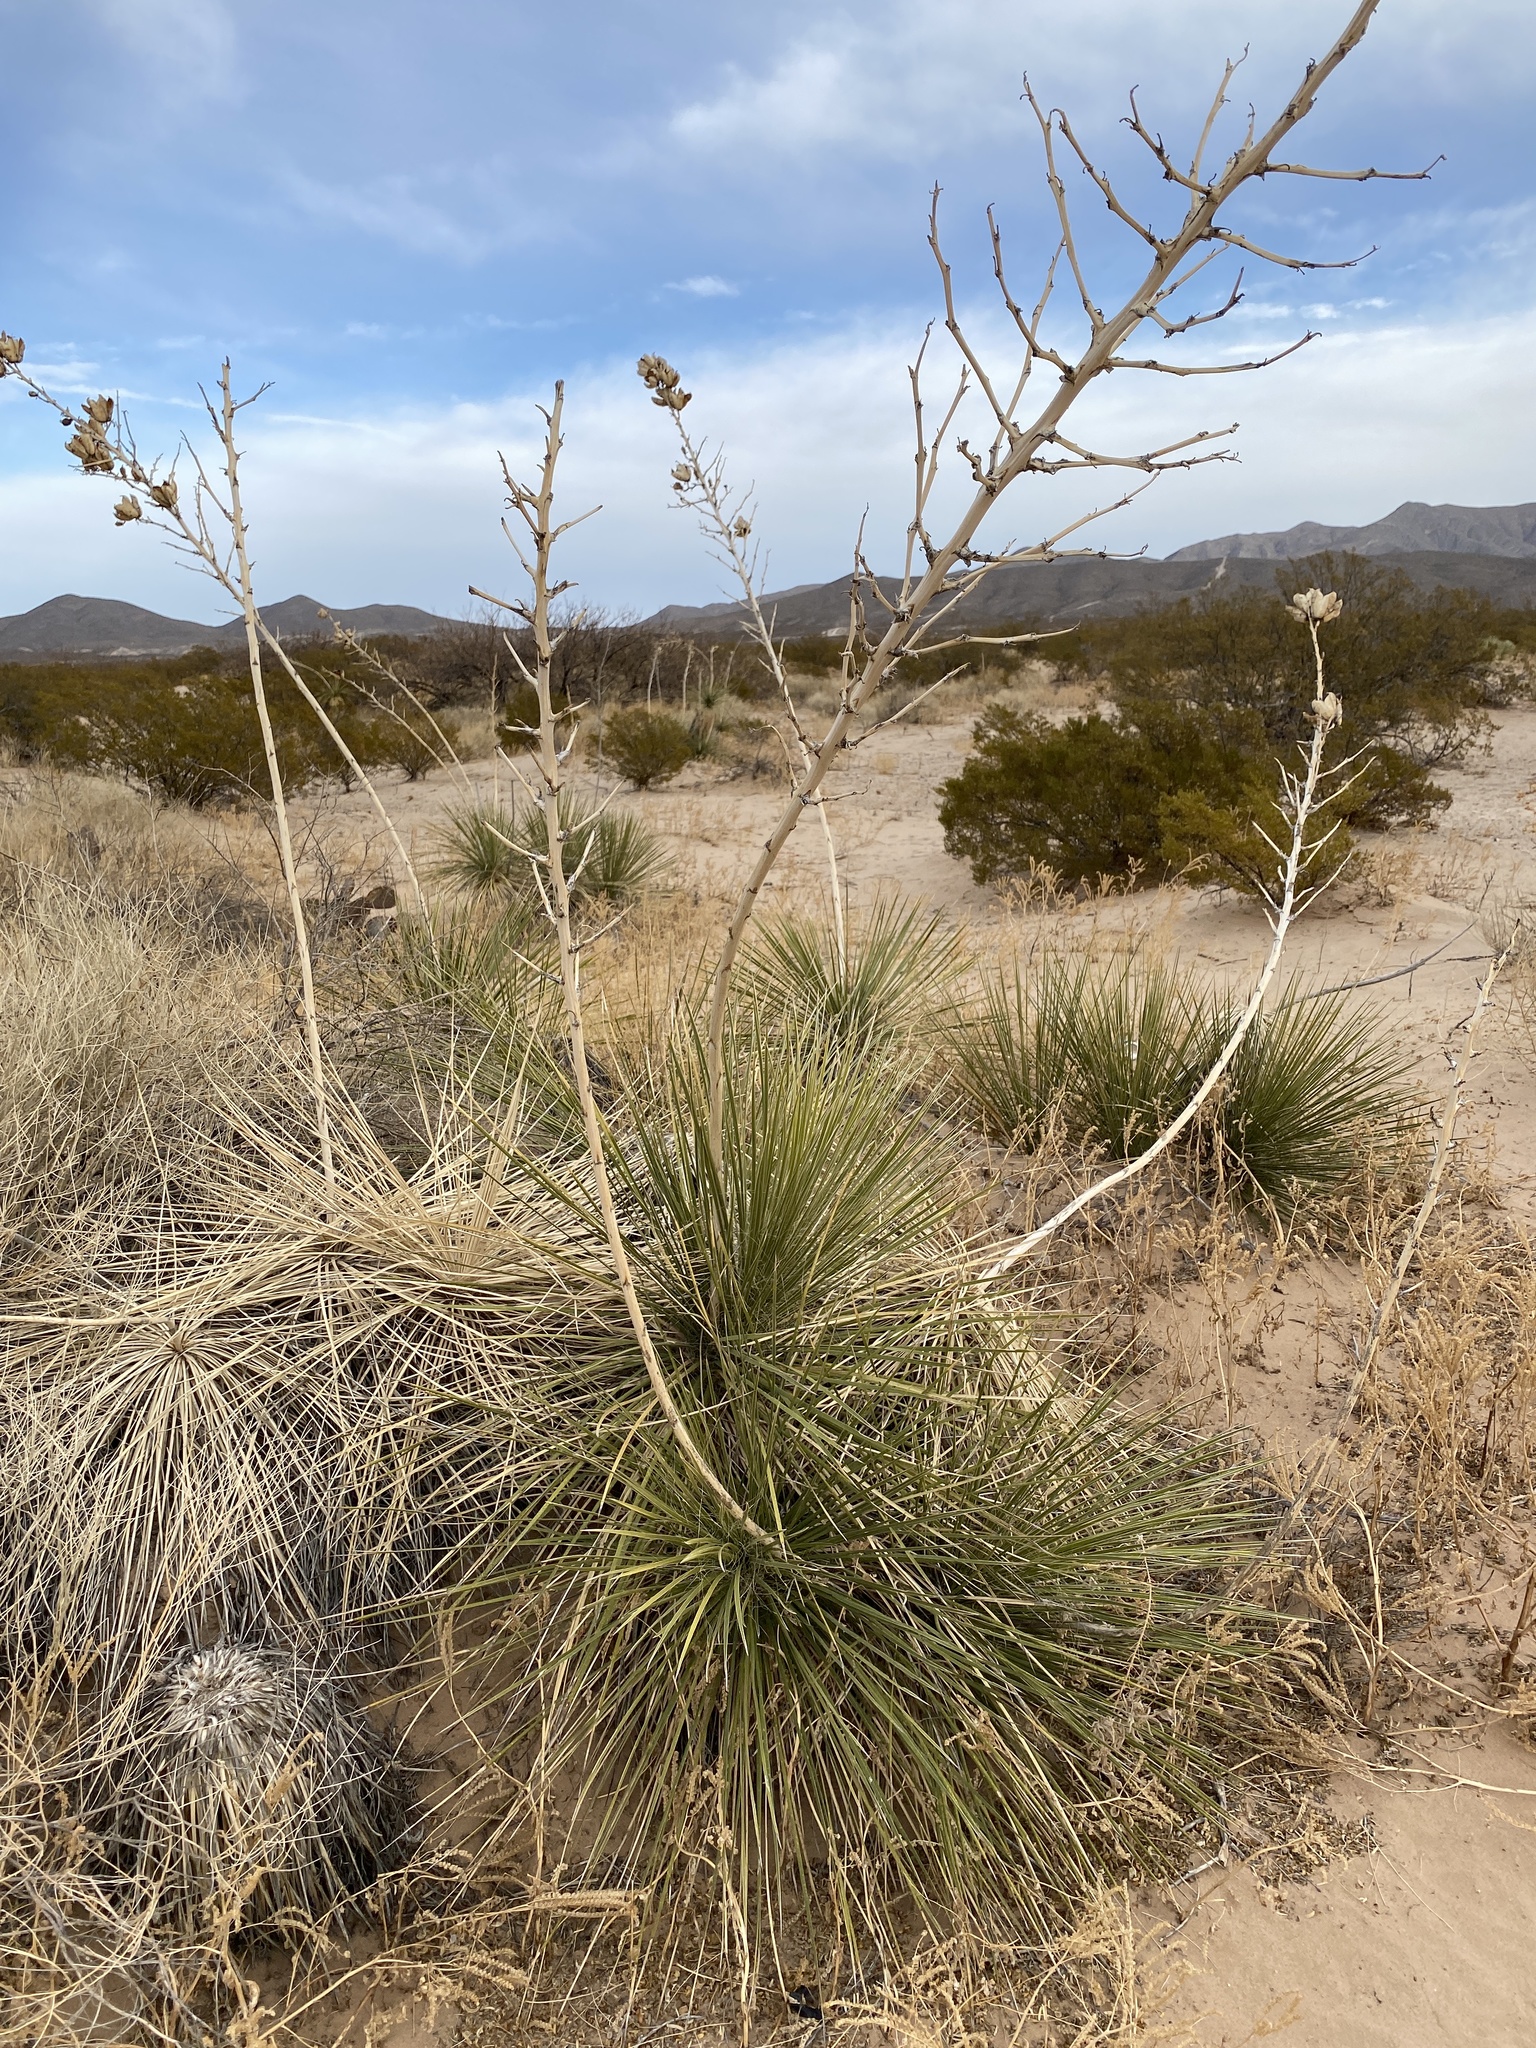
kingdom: Plantae
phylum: Tracheophyta
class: Liliopsida
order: Asparagales
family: Asparagaceae
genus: Yucca
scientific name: Yucca elata
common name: Palmella
